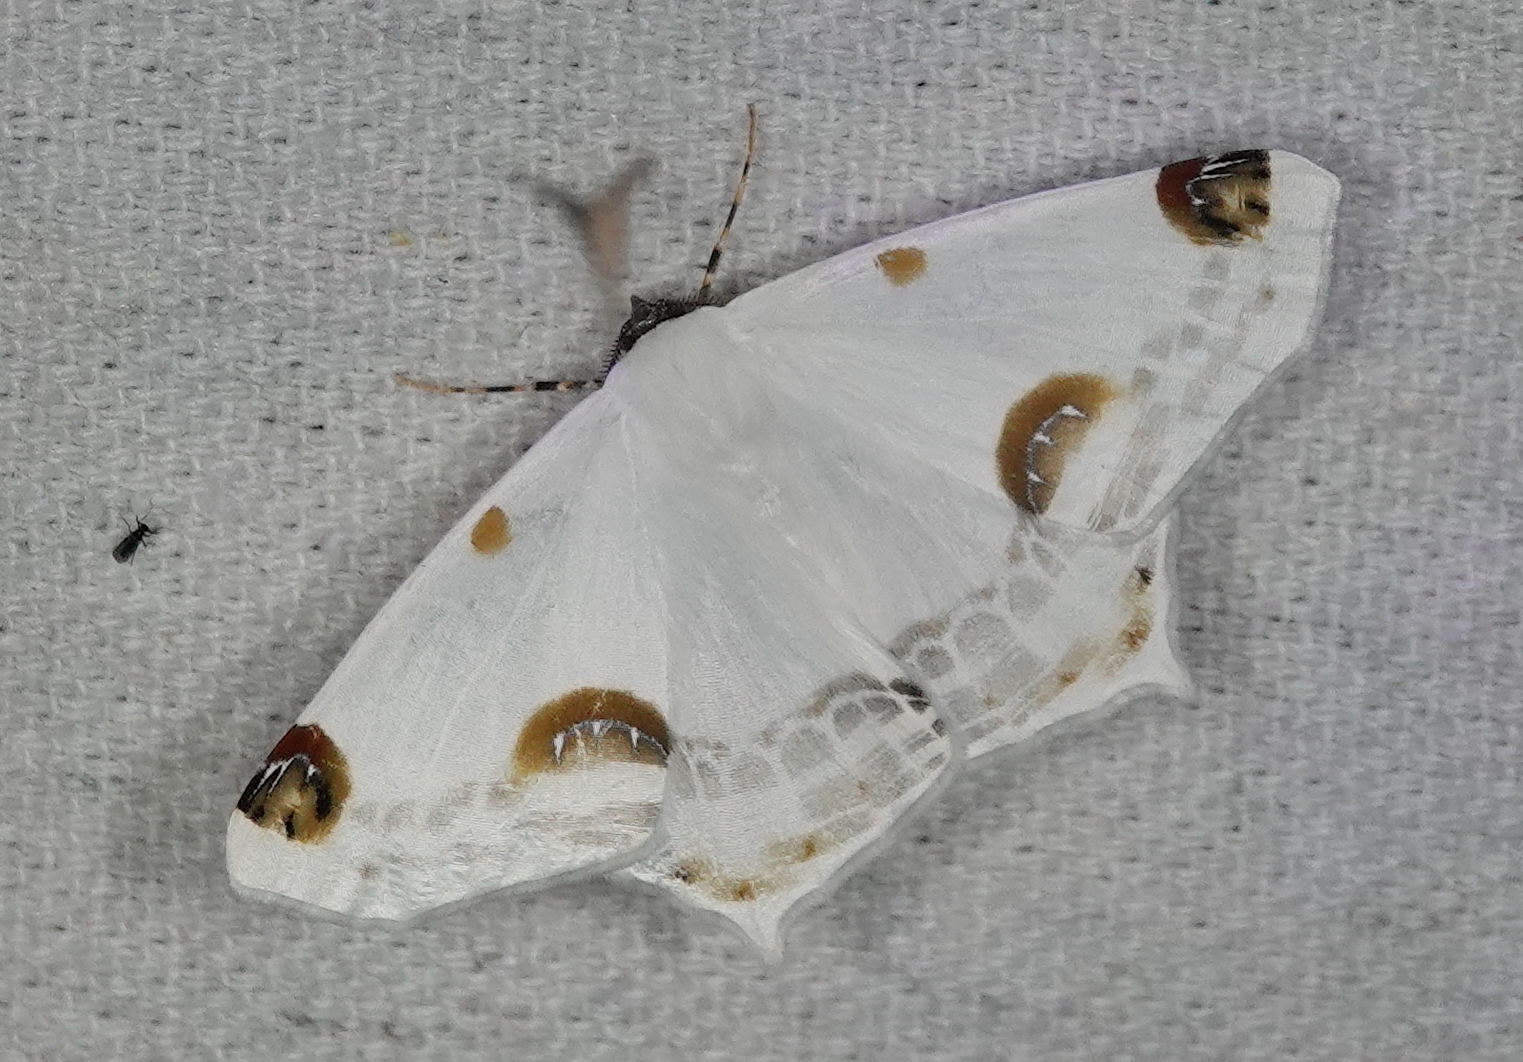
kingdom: Animalia
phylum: Arthropoda
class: Insecta
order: Lepidoptera
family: Geometridae
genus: Sericoptera
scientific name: Sericoptera mahometaria
